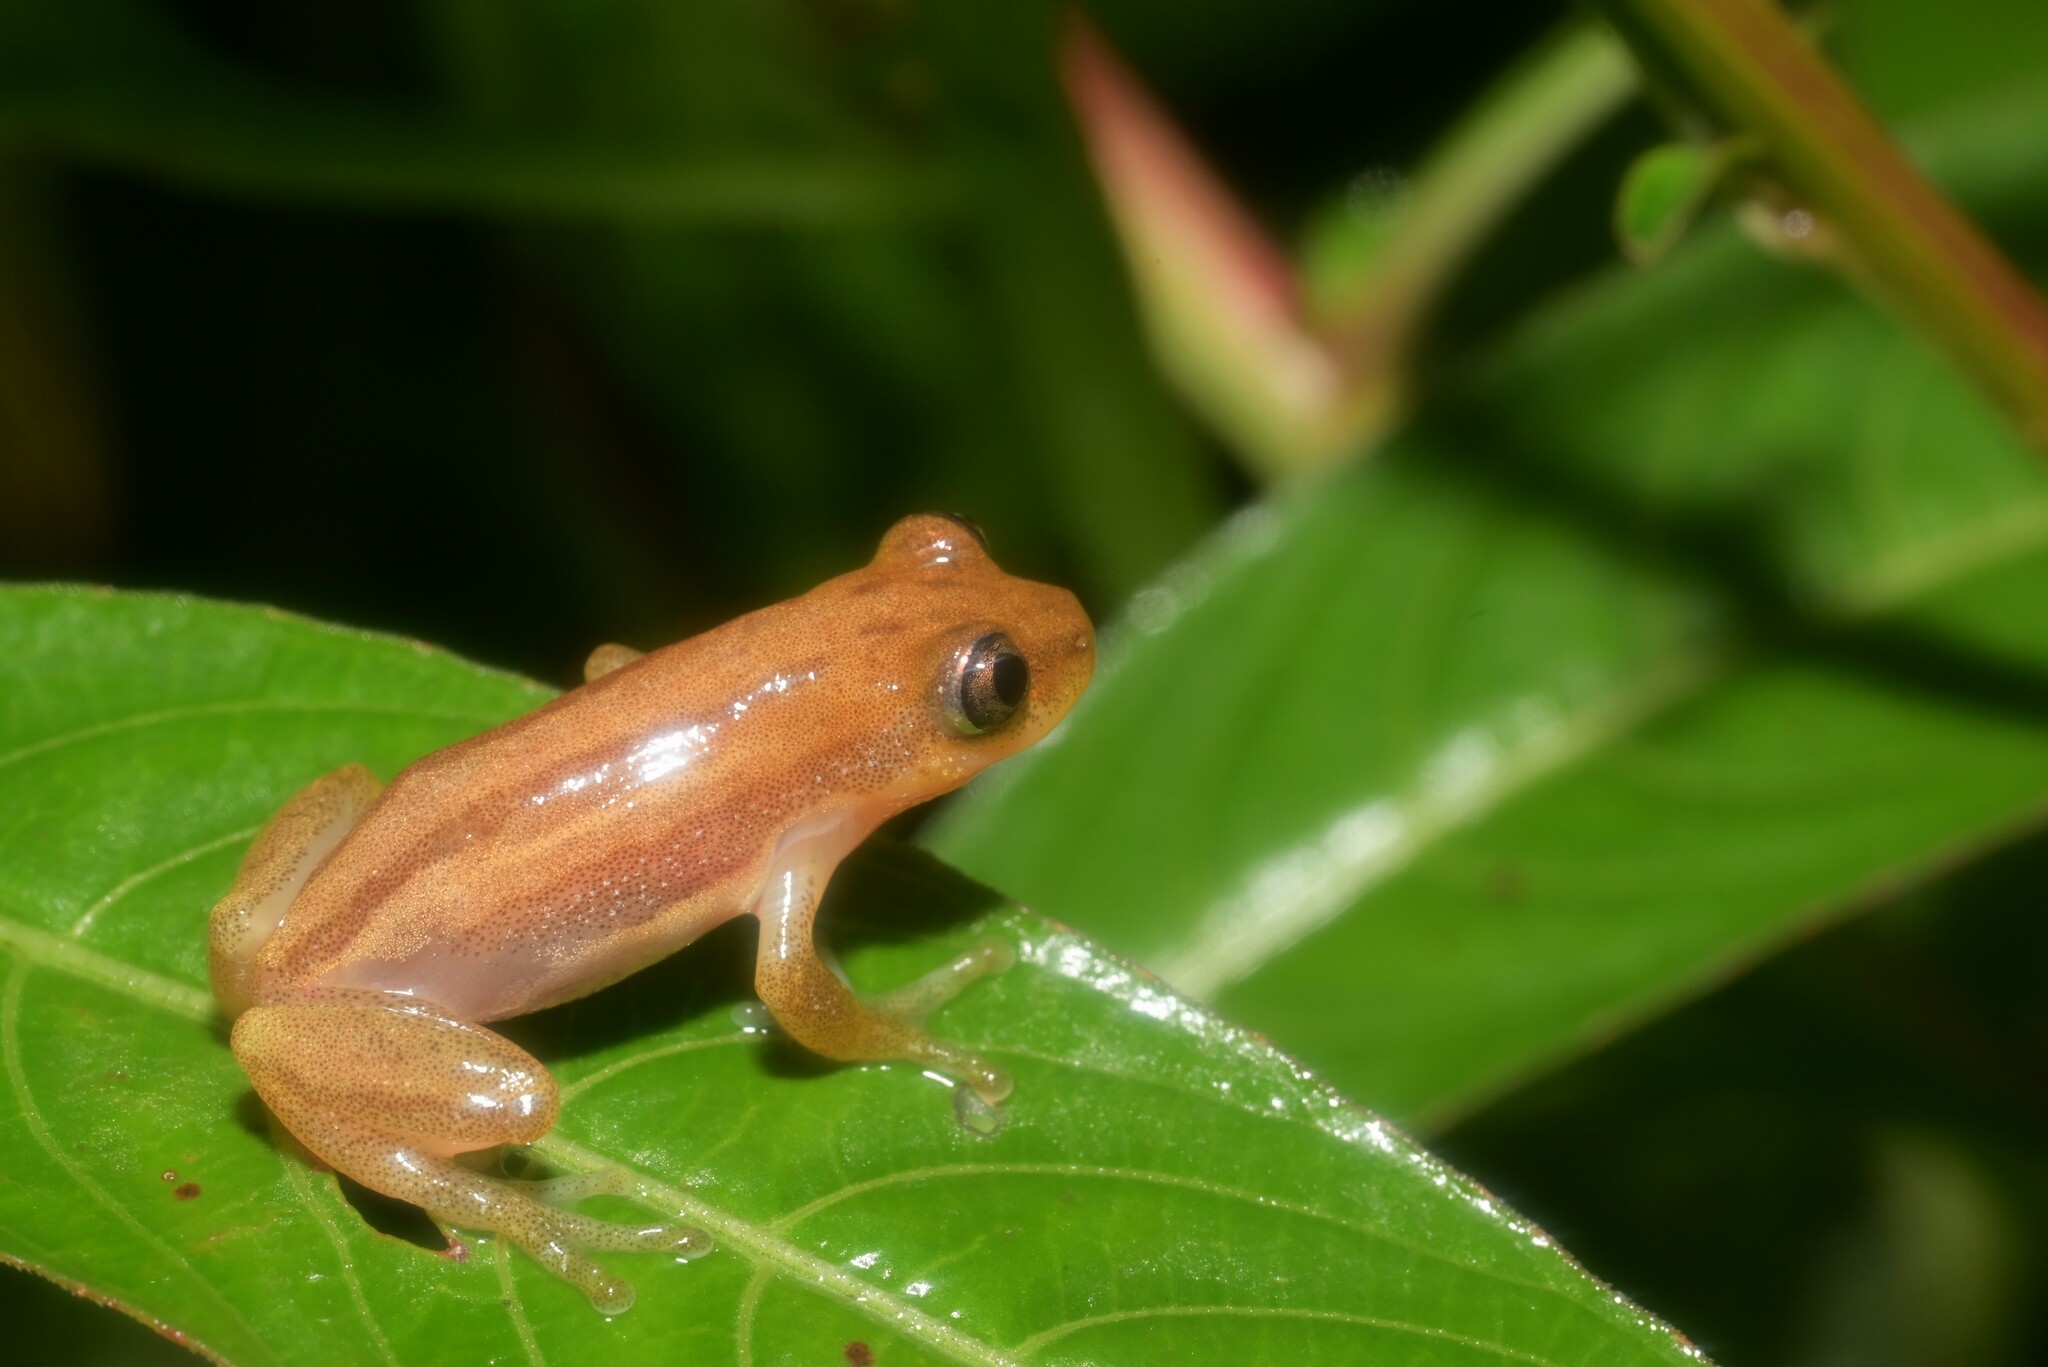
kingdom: Animalia
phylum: Chordata
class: Amphibia
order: Anura
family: Hyperoliidae
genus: Afrixalus
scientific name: Afrixalus brachycnemis
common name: Lesser banana frog
